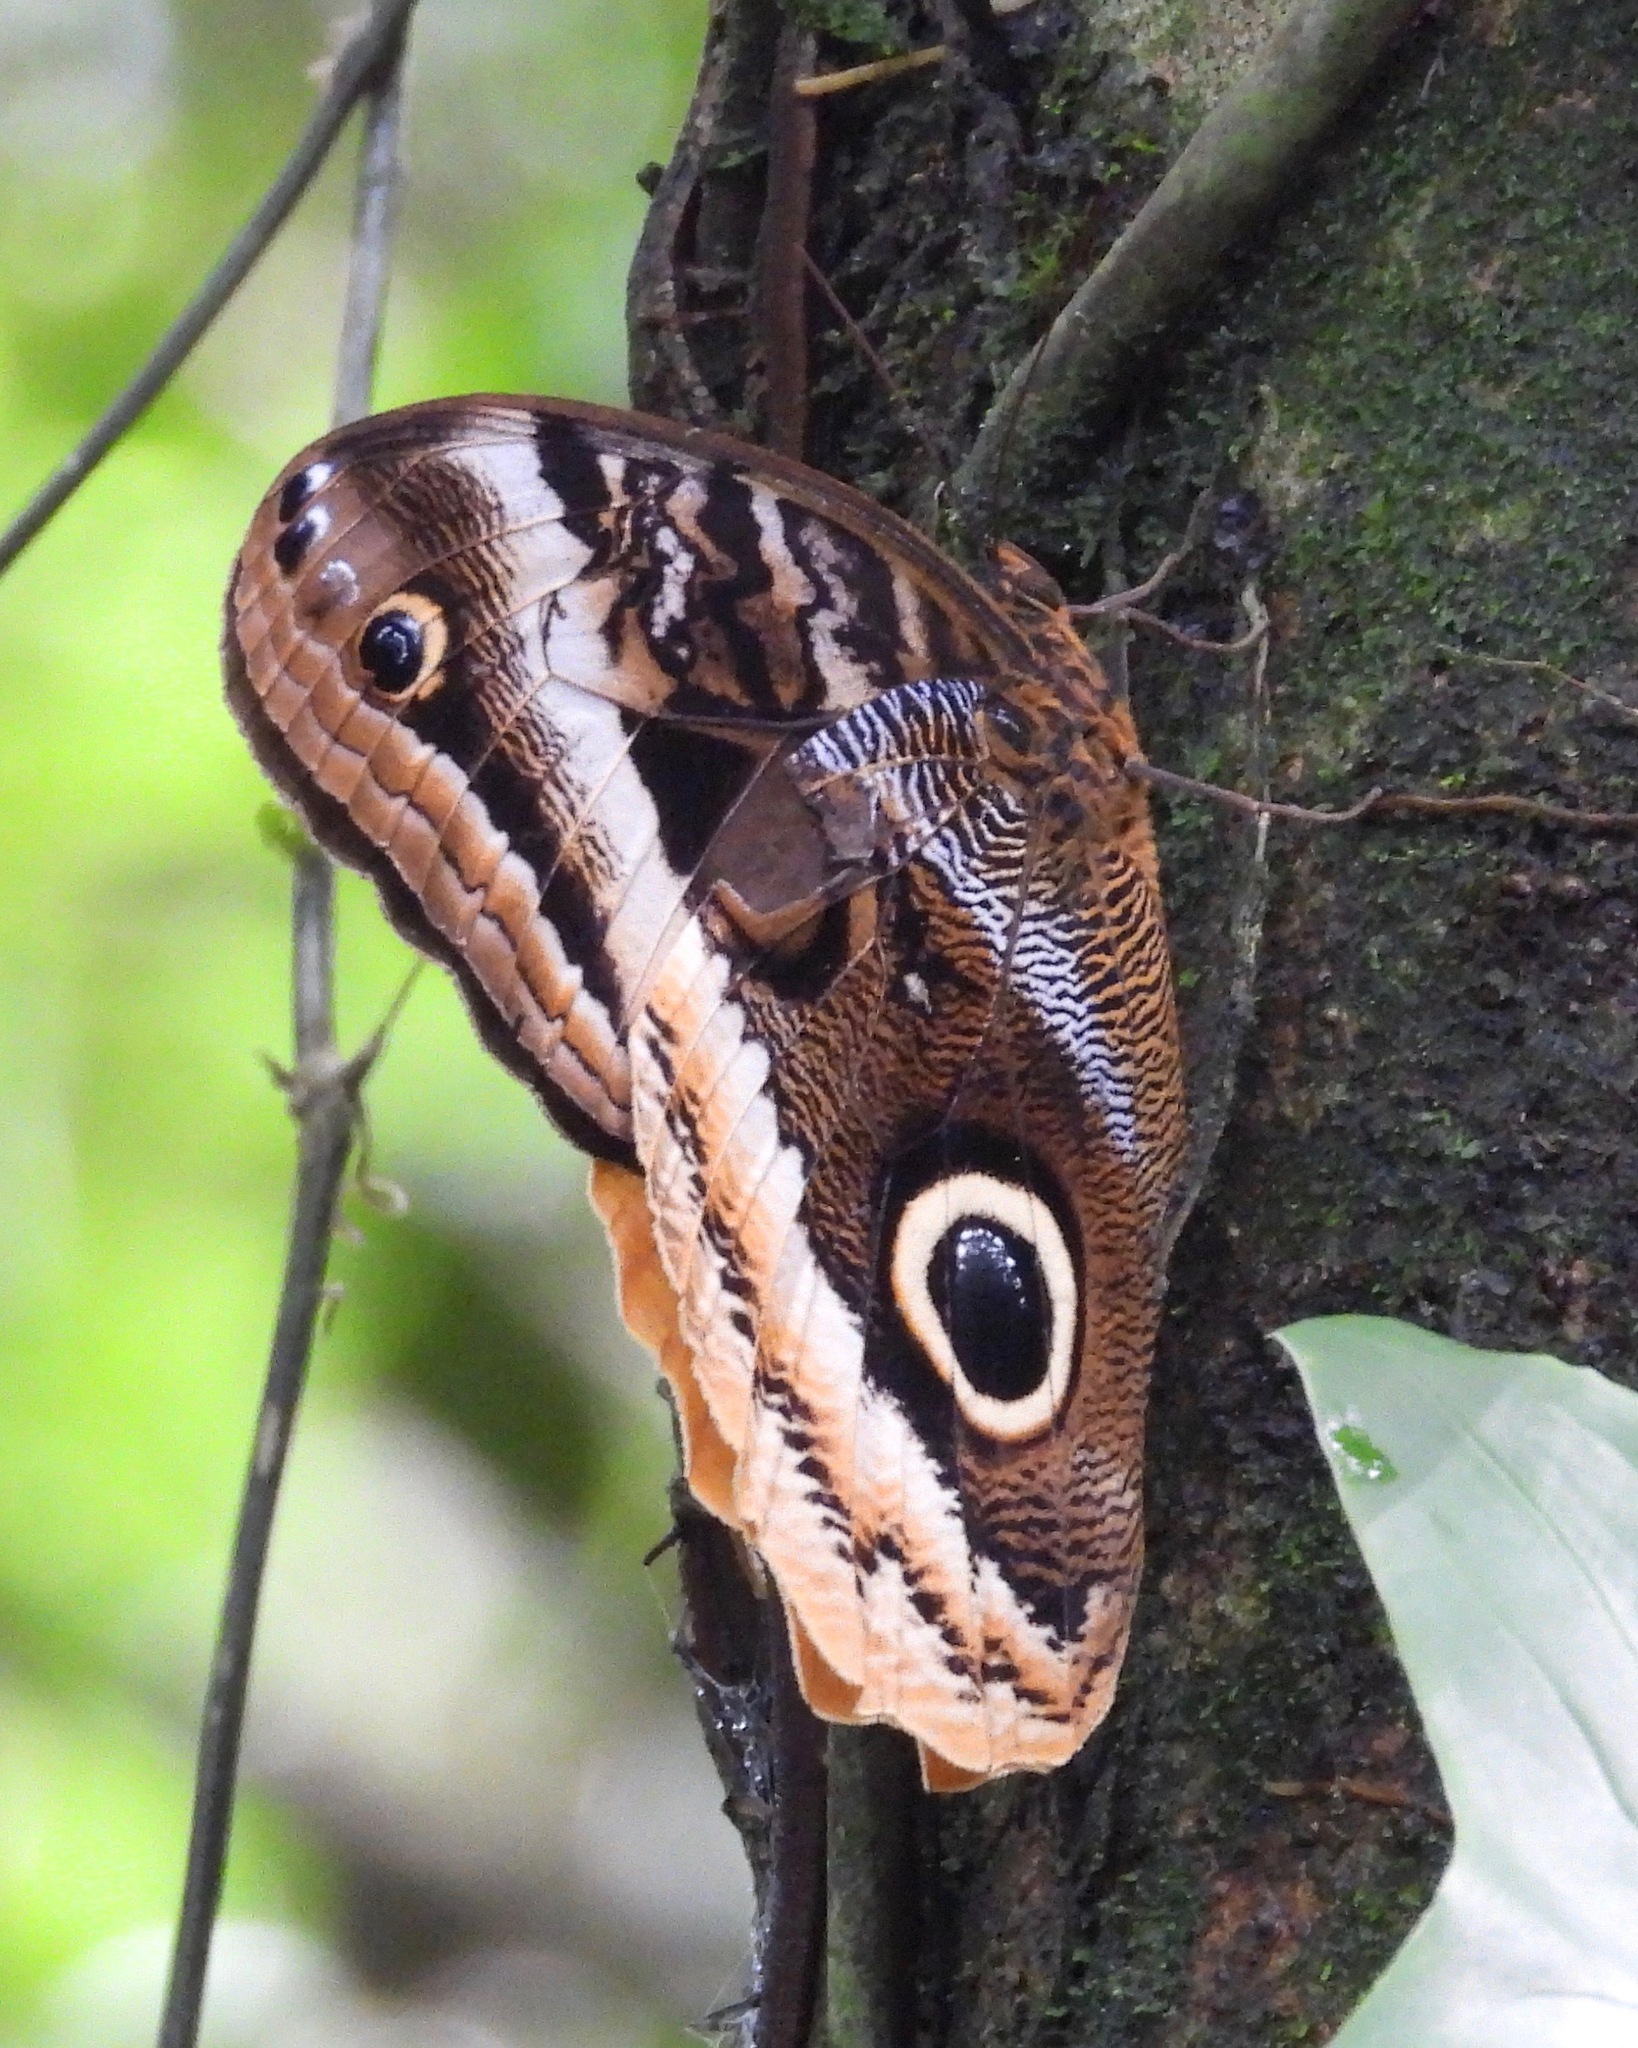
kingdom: Animalia
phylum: Arthropoda
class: Insecta
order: Lepidoptera
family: Nymphalidae
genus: Caligo
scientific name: Caligo uranus
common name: Gold-edged owl-butterfly
